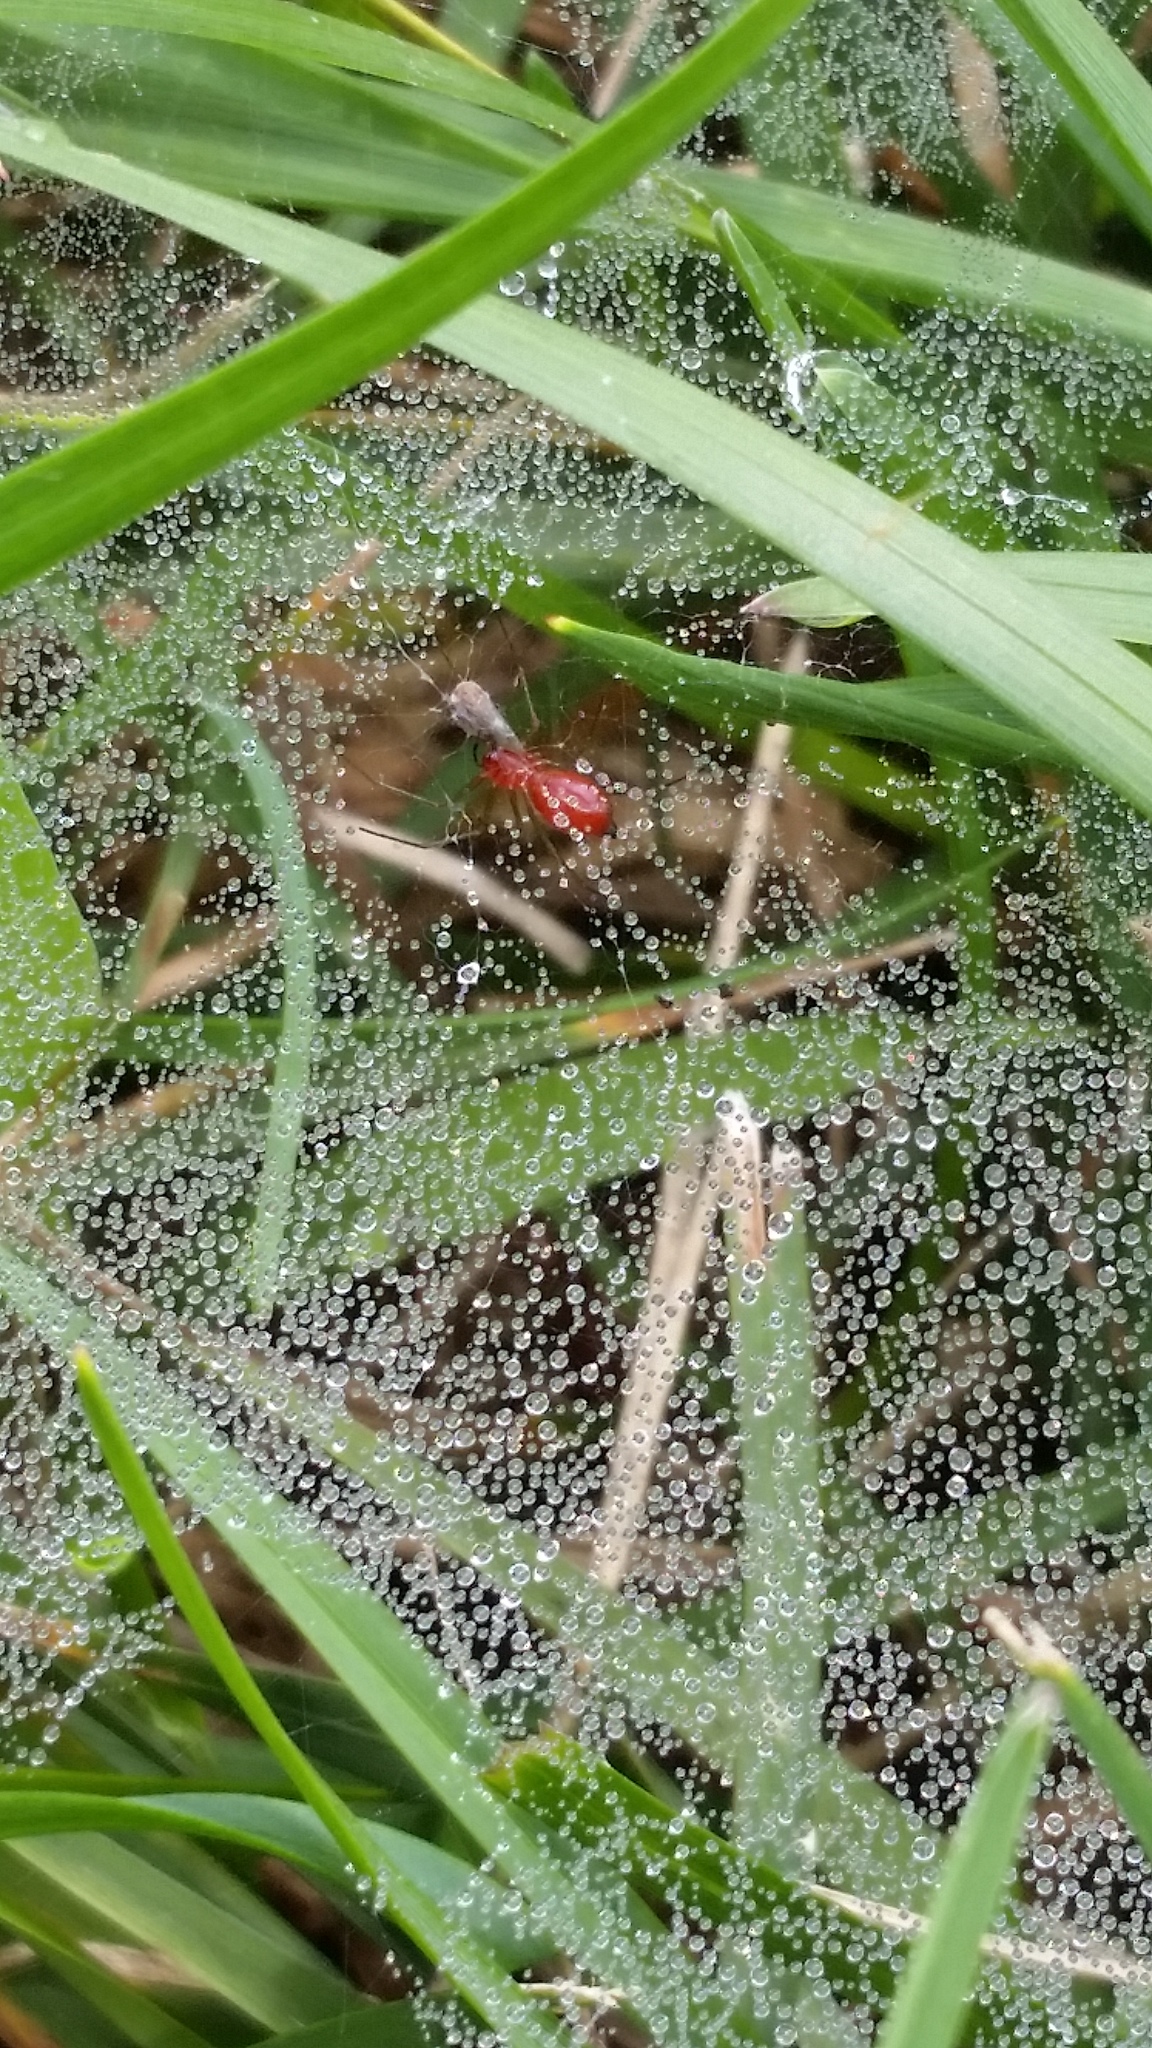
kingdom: Animalia
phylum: Arthropoda
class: Arachnida
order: Araneae
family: Linyphiidae
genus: Florinda
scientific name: Florinda coccinea
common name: Black-tailed red sheetweaver
